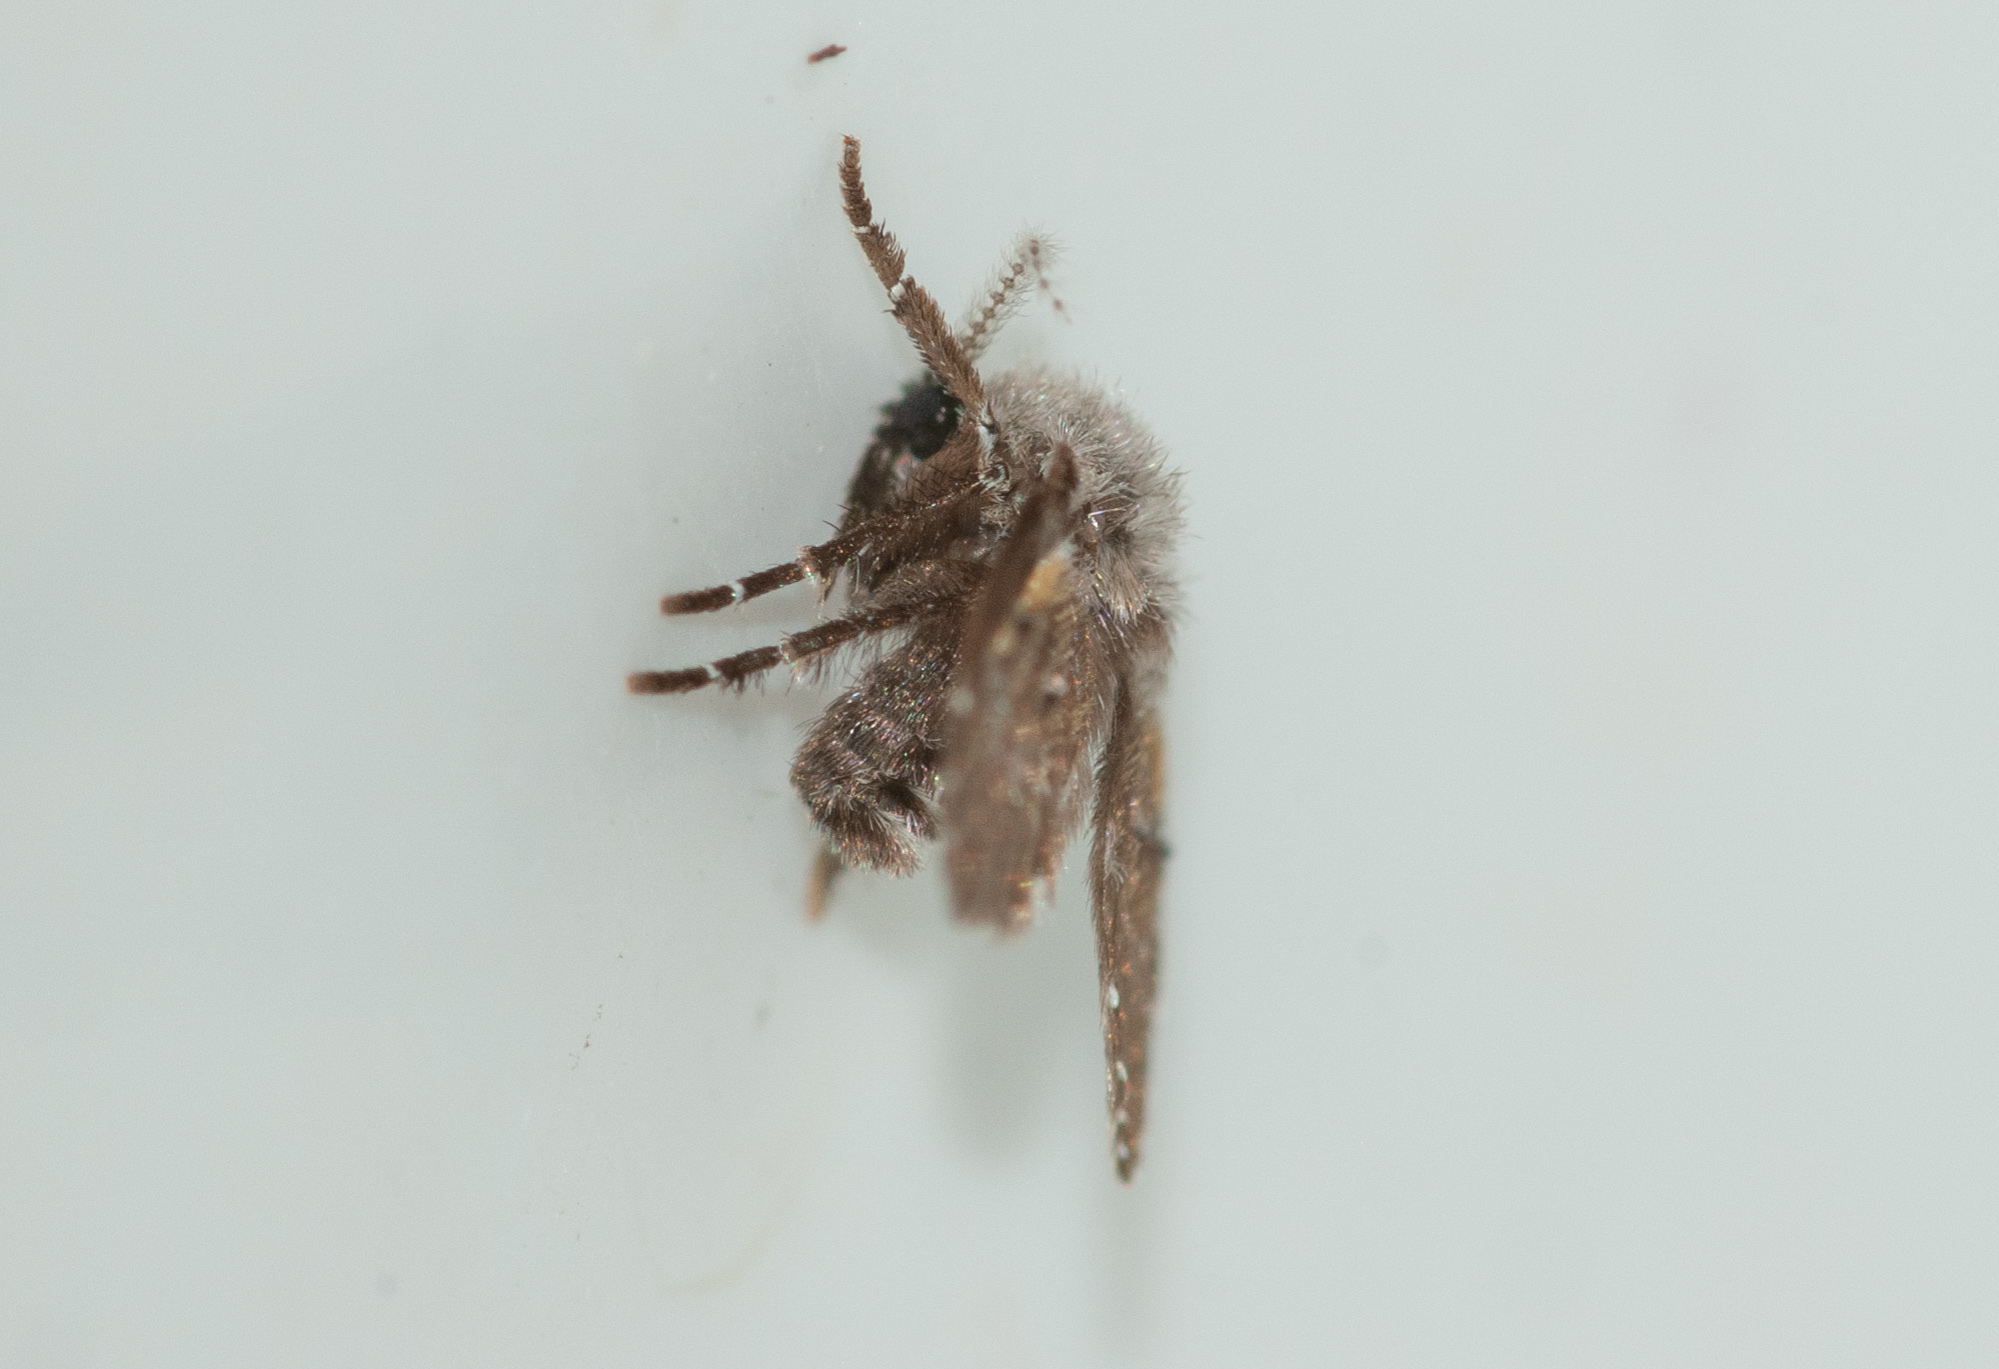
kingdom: Animalia
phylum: Arthropoda
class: Insecta
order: Diptera
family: Psychodidae
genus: Clogmia
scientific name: Clogmia albipunctatus
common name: White-spotted moth fly
